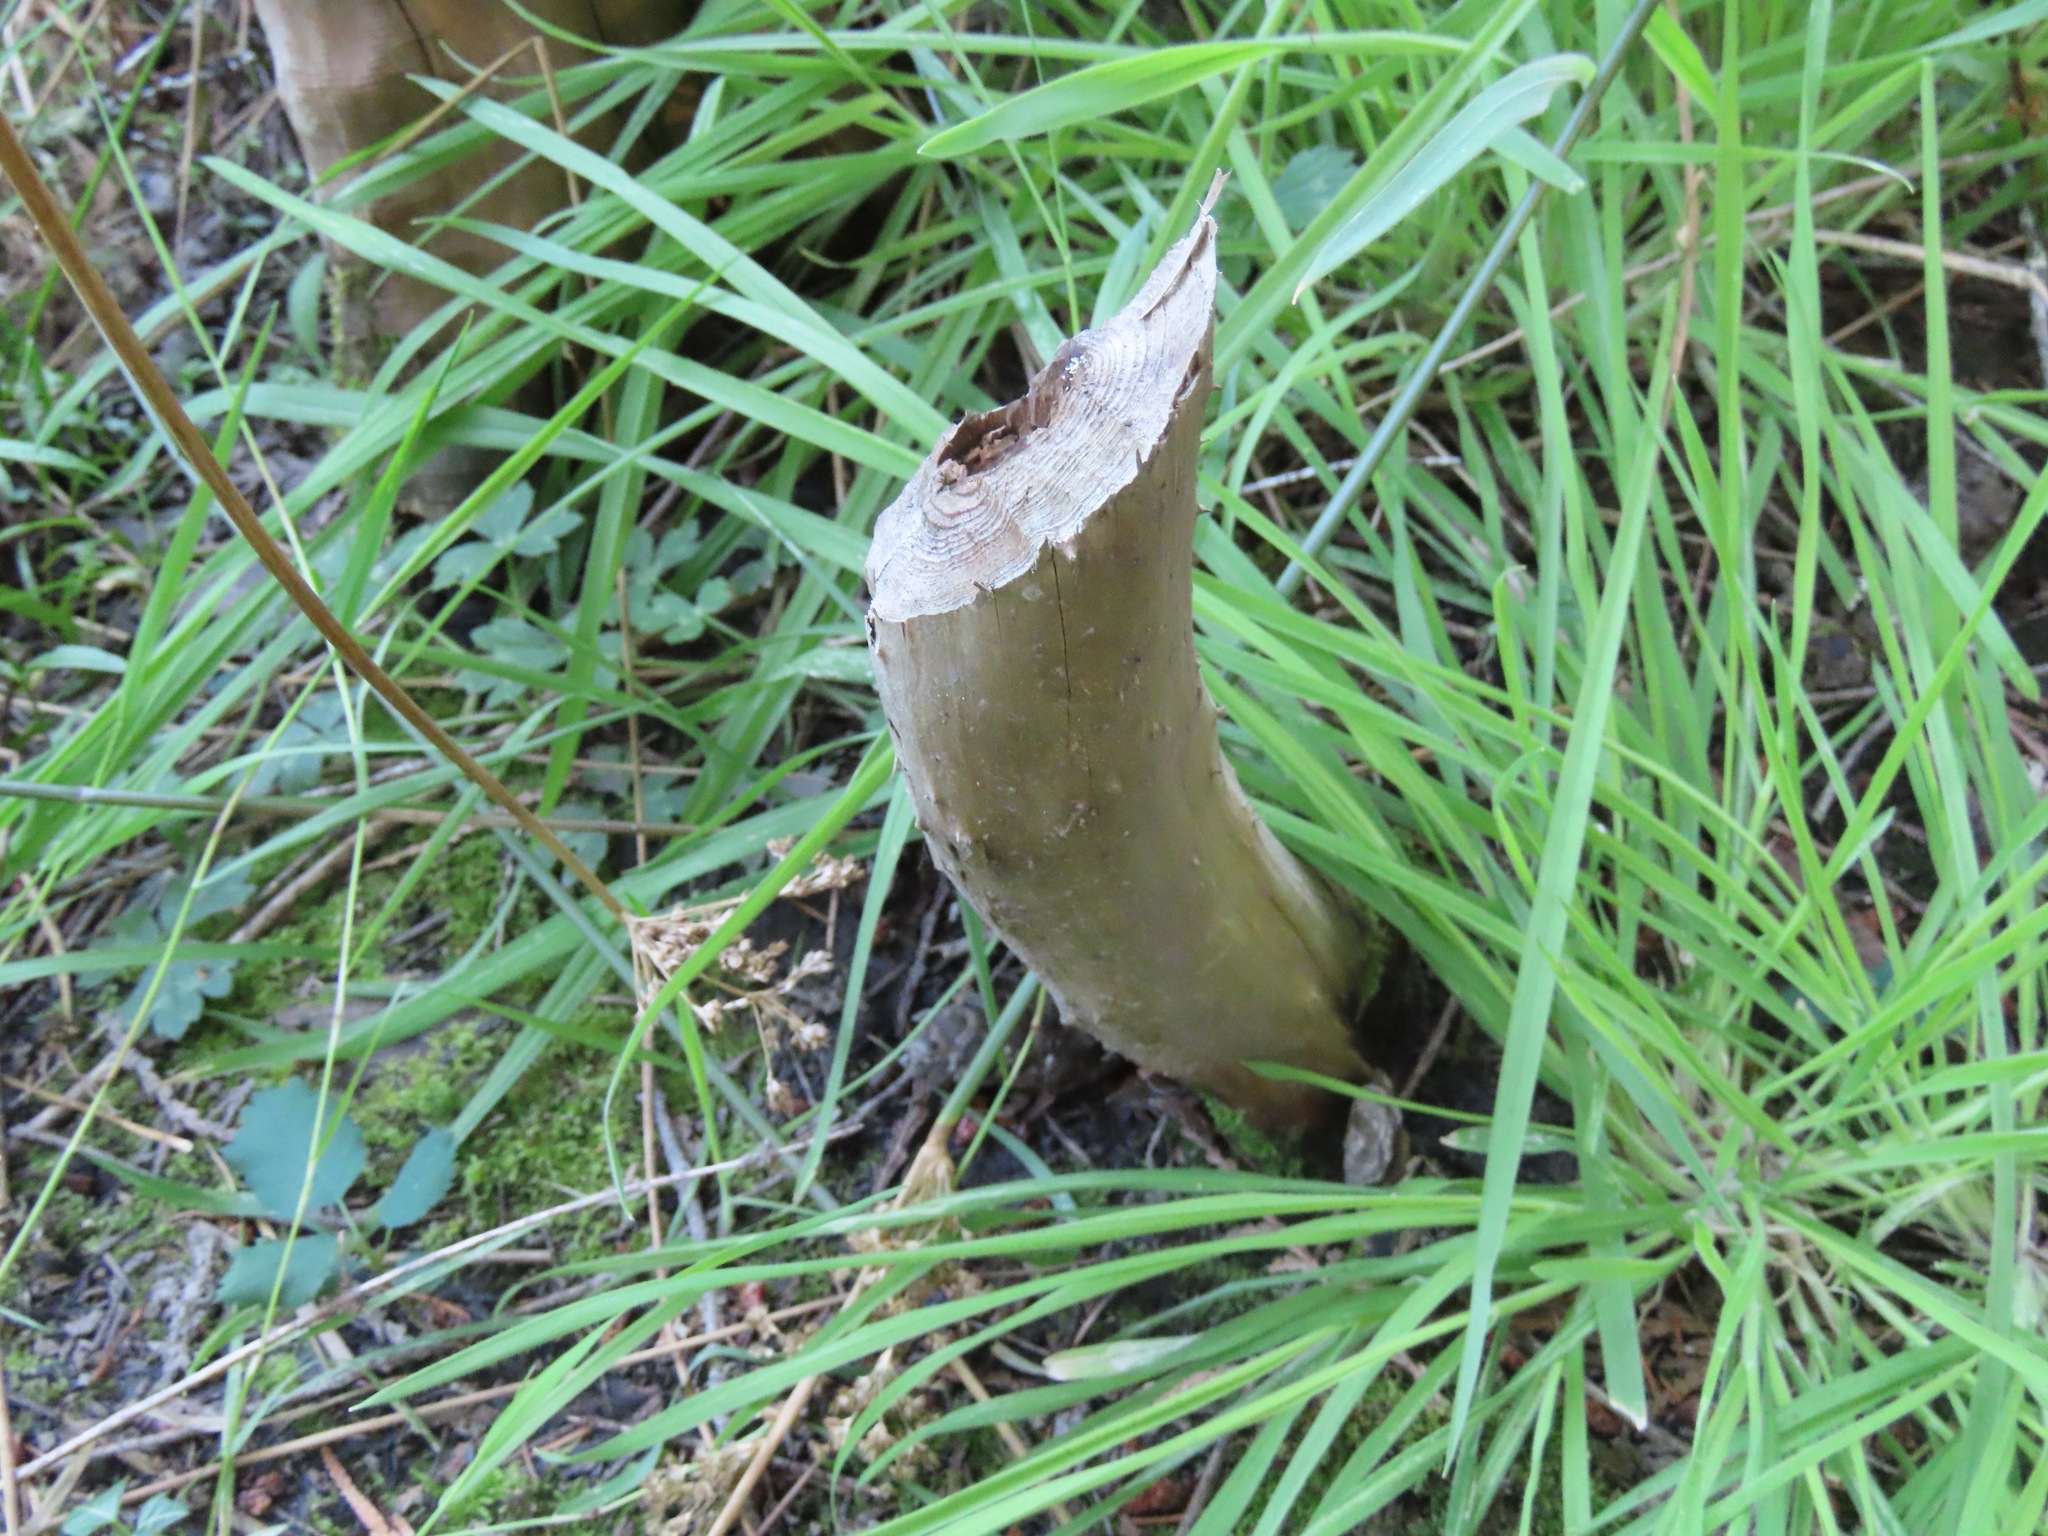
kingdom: Animalia
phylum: Chordata
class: Mammalia
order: Rodentia
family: Castoridae
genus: Castor
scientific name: Castor canadensis
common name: American beaver
